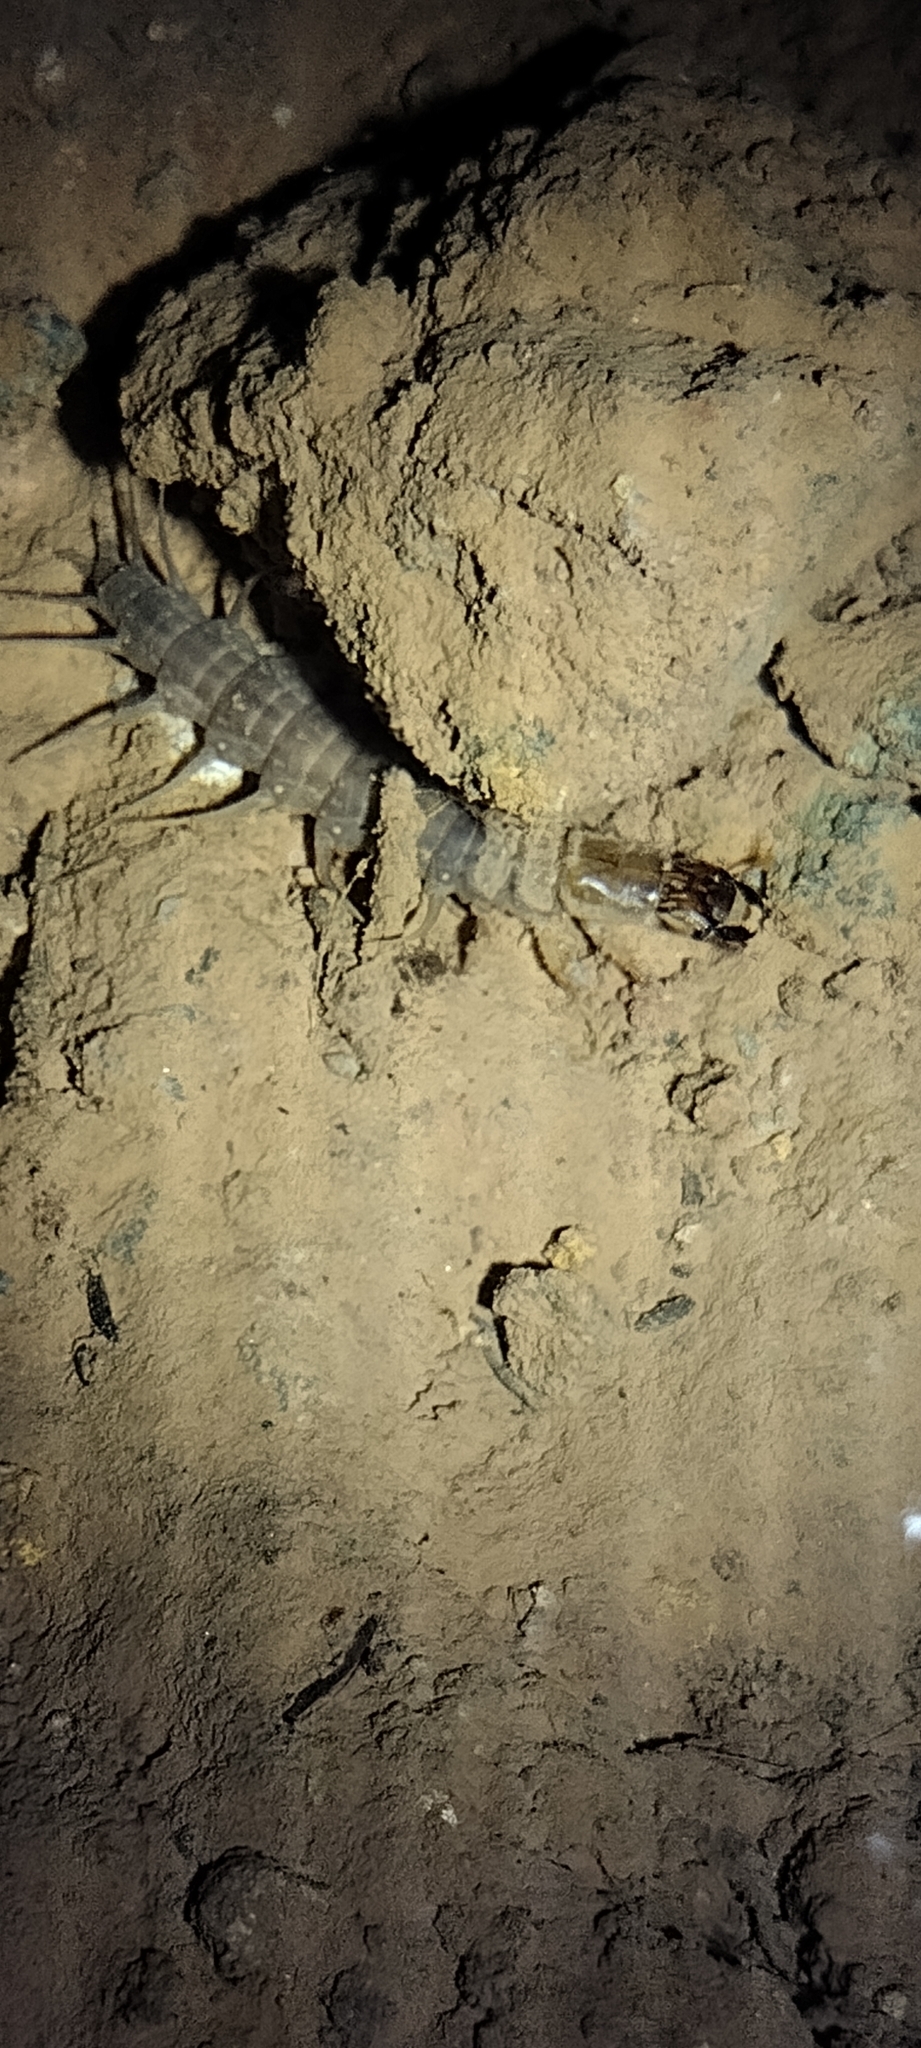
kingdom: Animalia
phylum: Arthropoda
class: Insecta
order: Megaloptera
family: Corydalidae
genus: Neohermes
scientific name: Neohermes filicornis
